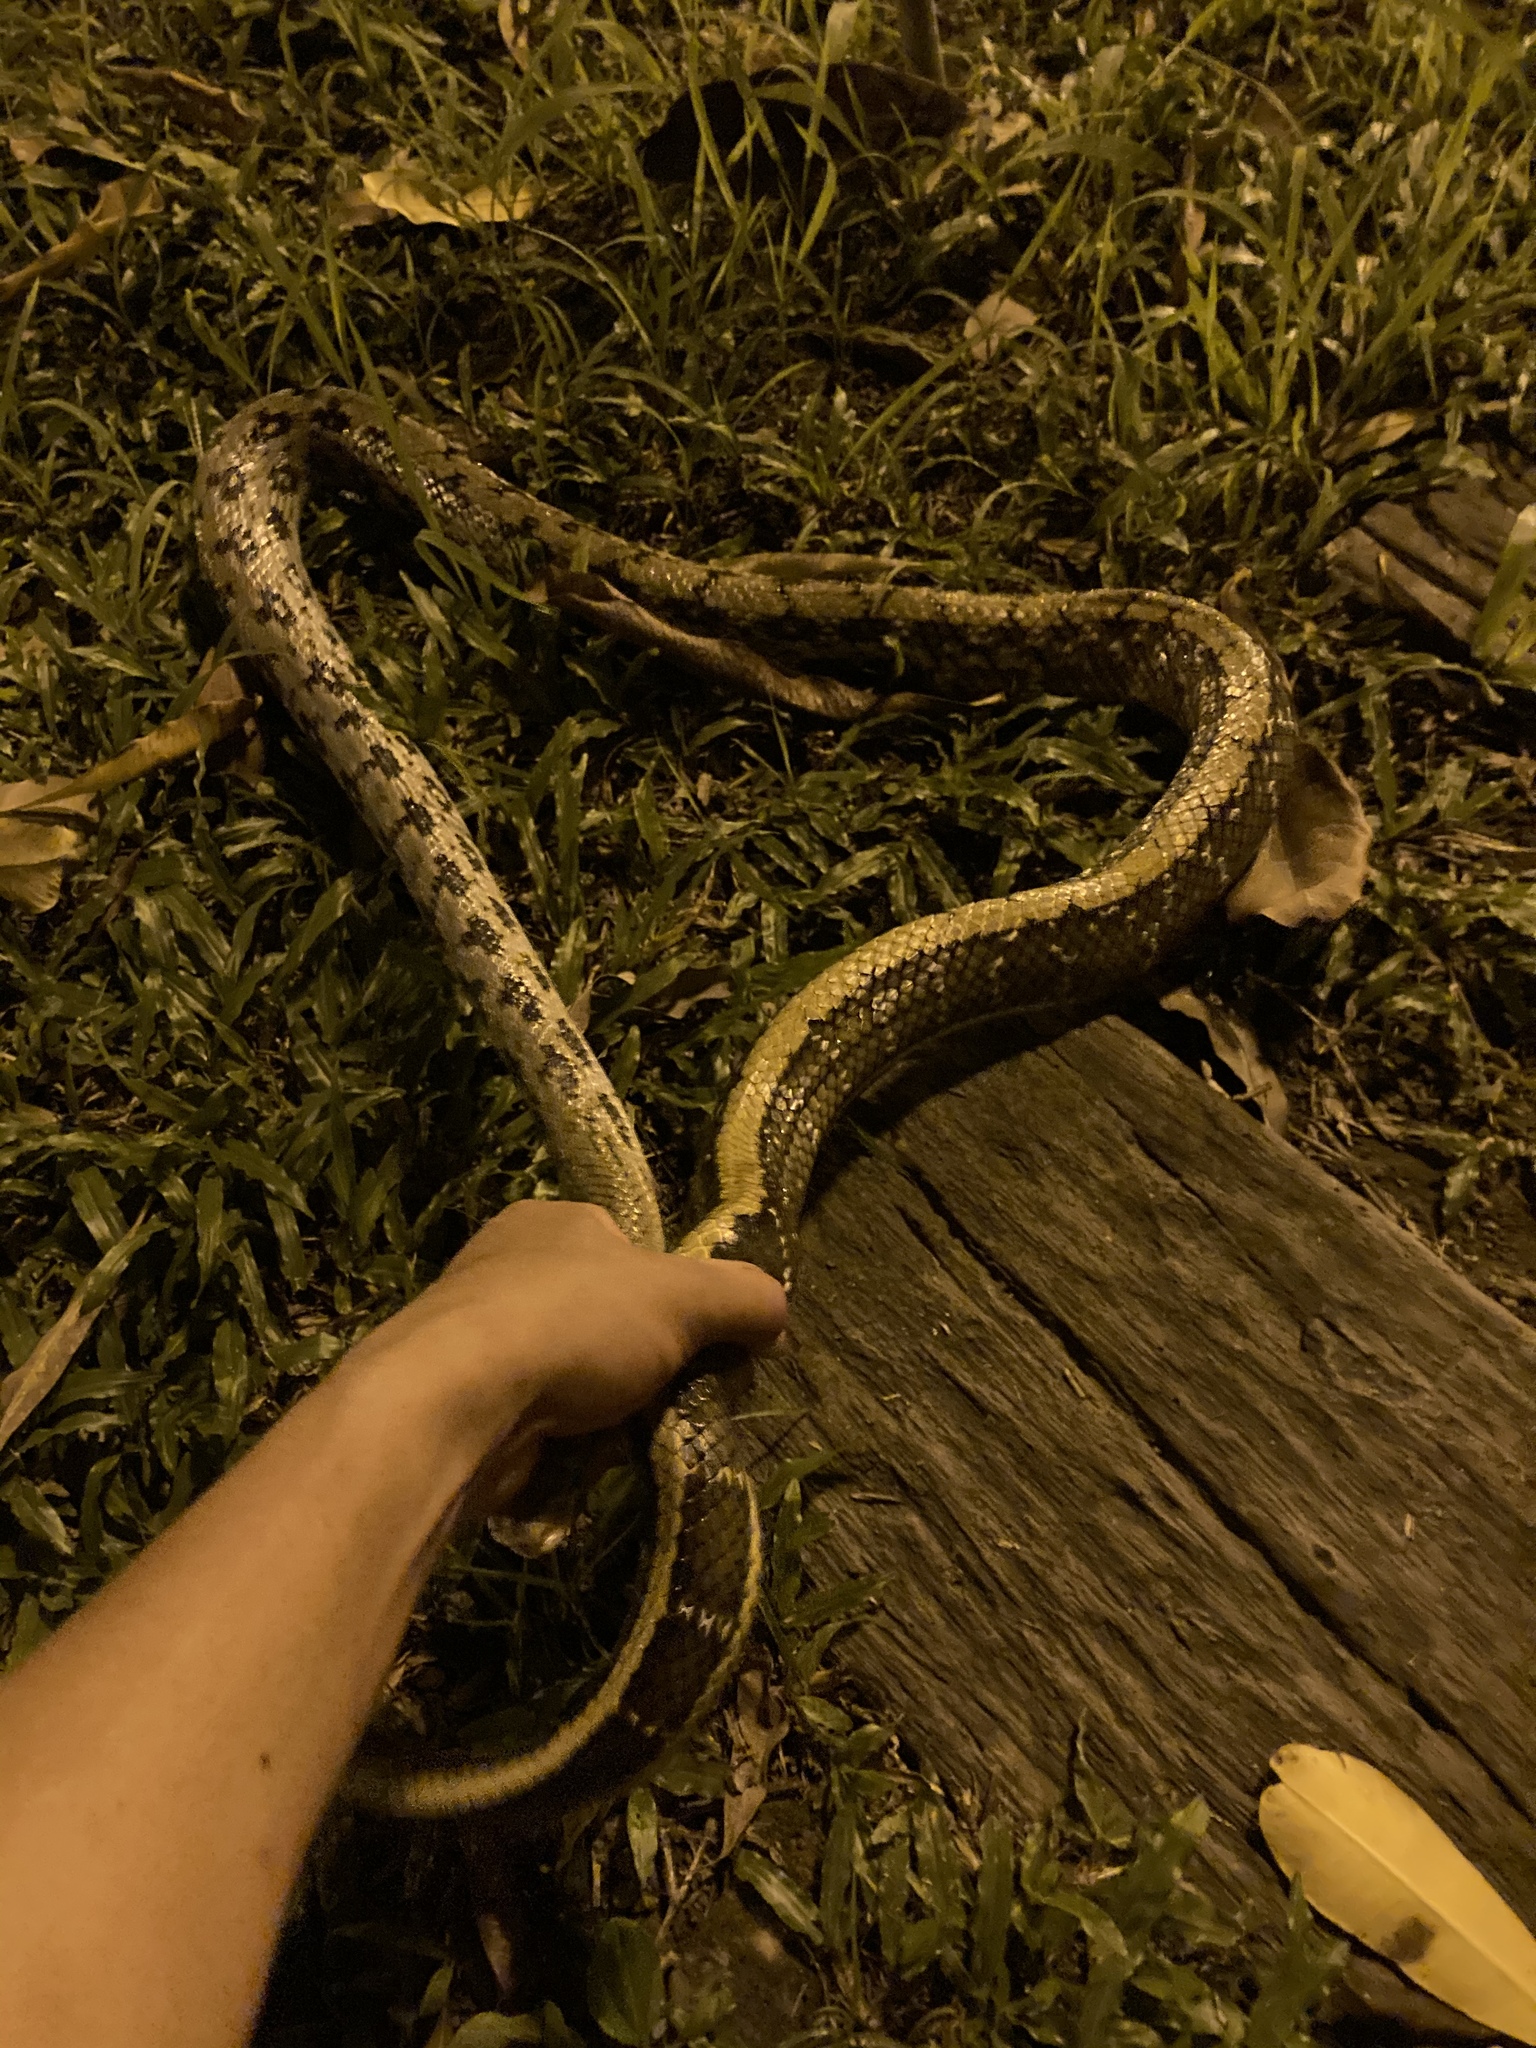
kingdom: Animalia
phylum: Chordata
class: Squamata
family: Colubridae
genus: Elaphe
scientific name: Elaphe taeniura
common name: Beauty snake
